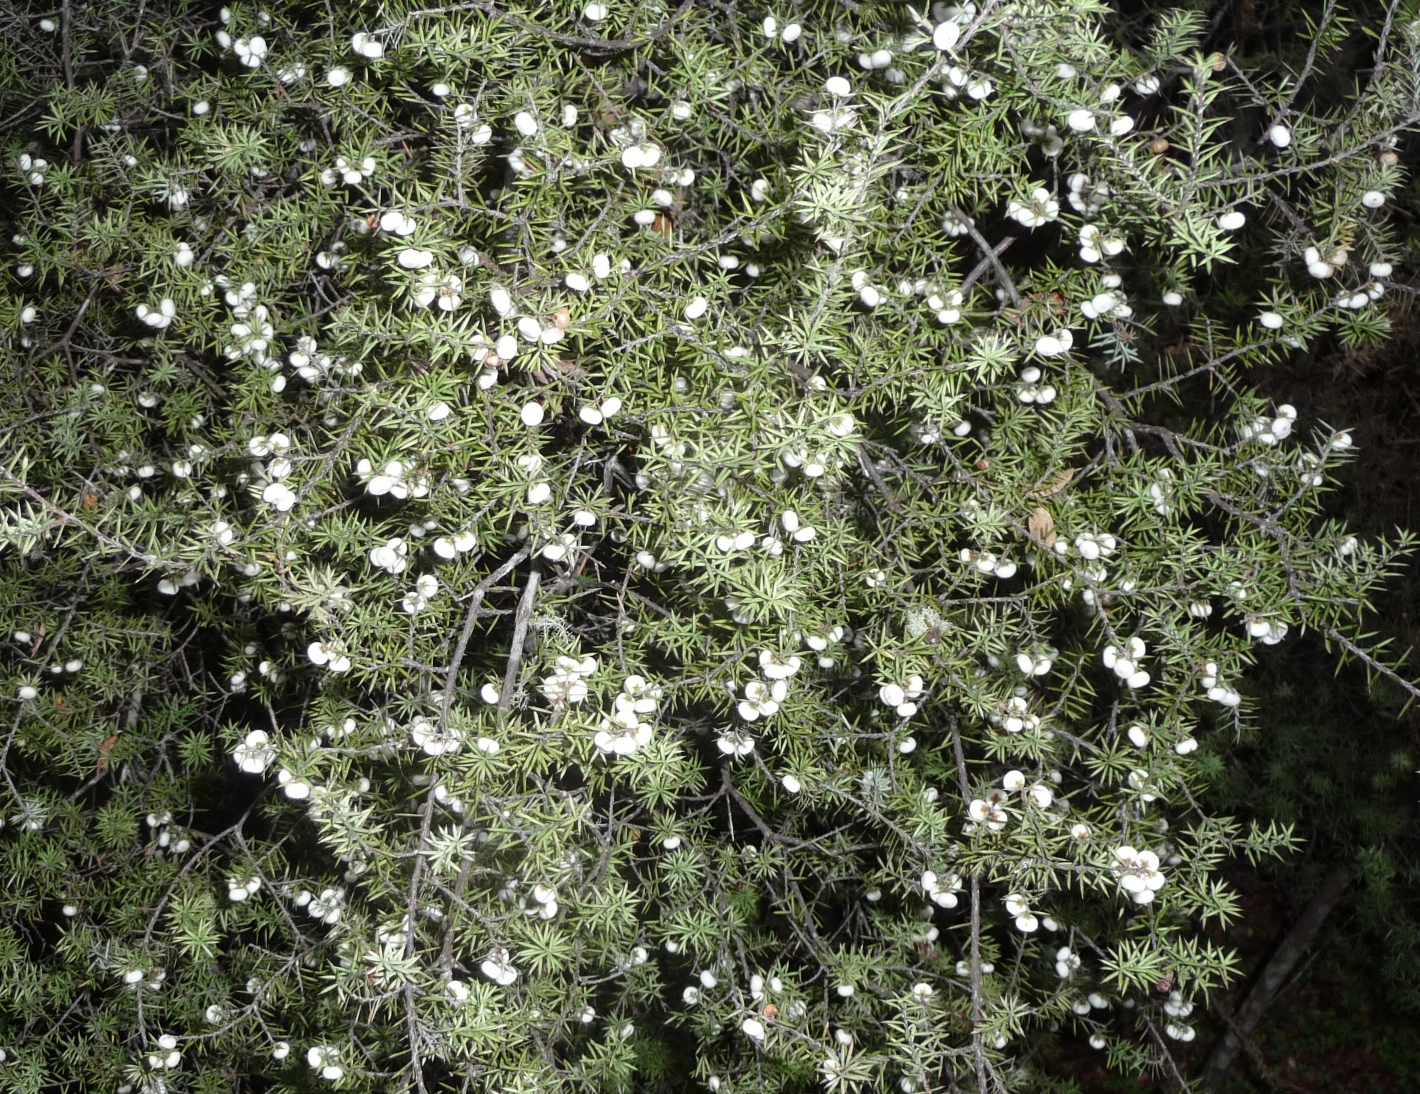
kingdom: Plantae
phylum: Tracheophyta
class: Magnoliopsida
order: Ericales
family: Ericaceae
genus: Leptecophylla
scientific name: Leptecophylla juniperina
